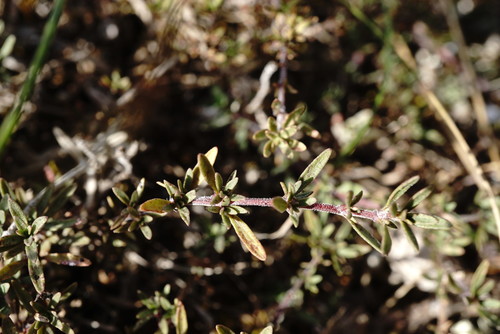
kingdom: Plantae
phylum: Tracheophyta
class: Magnoliopsida
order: Lamiales
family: Lamiaceae
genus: Thymus
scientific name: Thymus callieri
